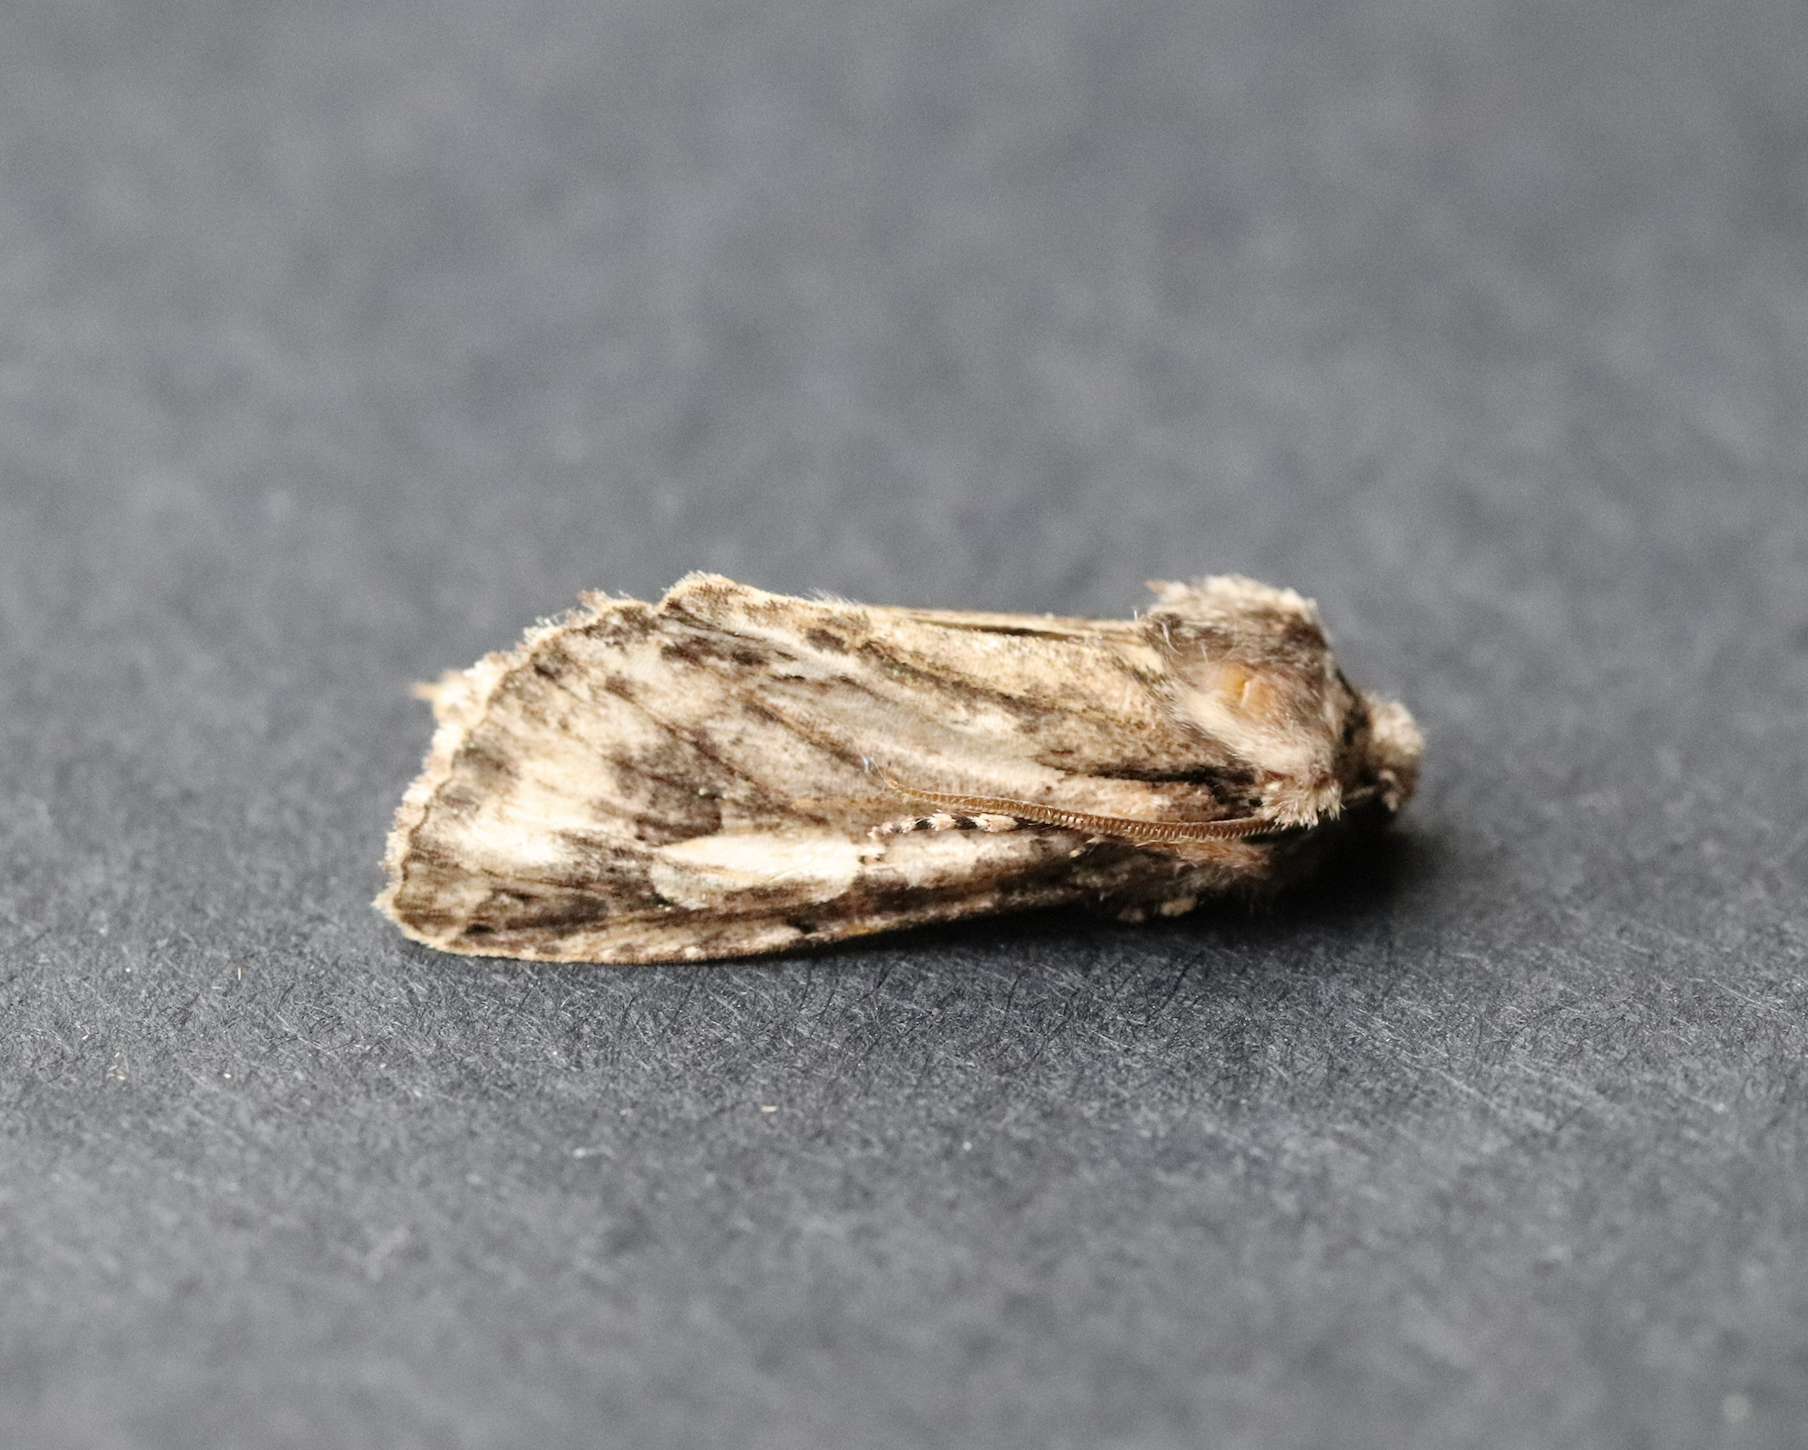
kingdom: Animalia
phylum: Arthropoda
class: Insecta
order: Lepidoptera
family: Noctuidae
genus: Allophyes
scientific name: Allophyes oxyacanthae
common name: Green-brindled crescent
